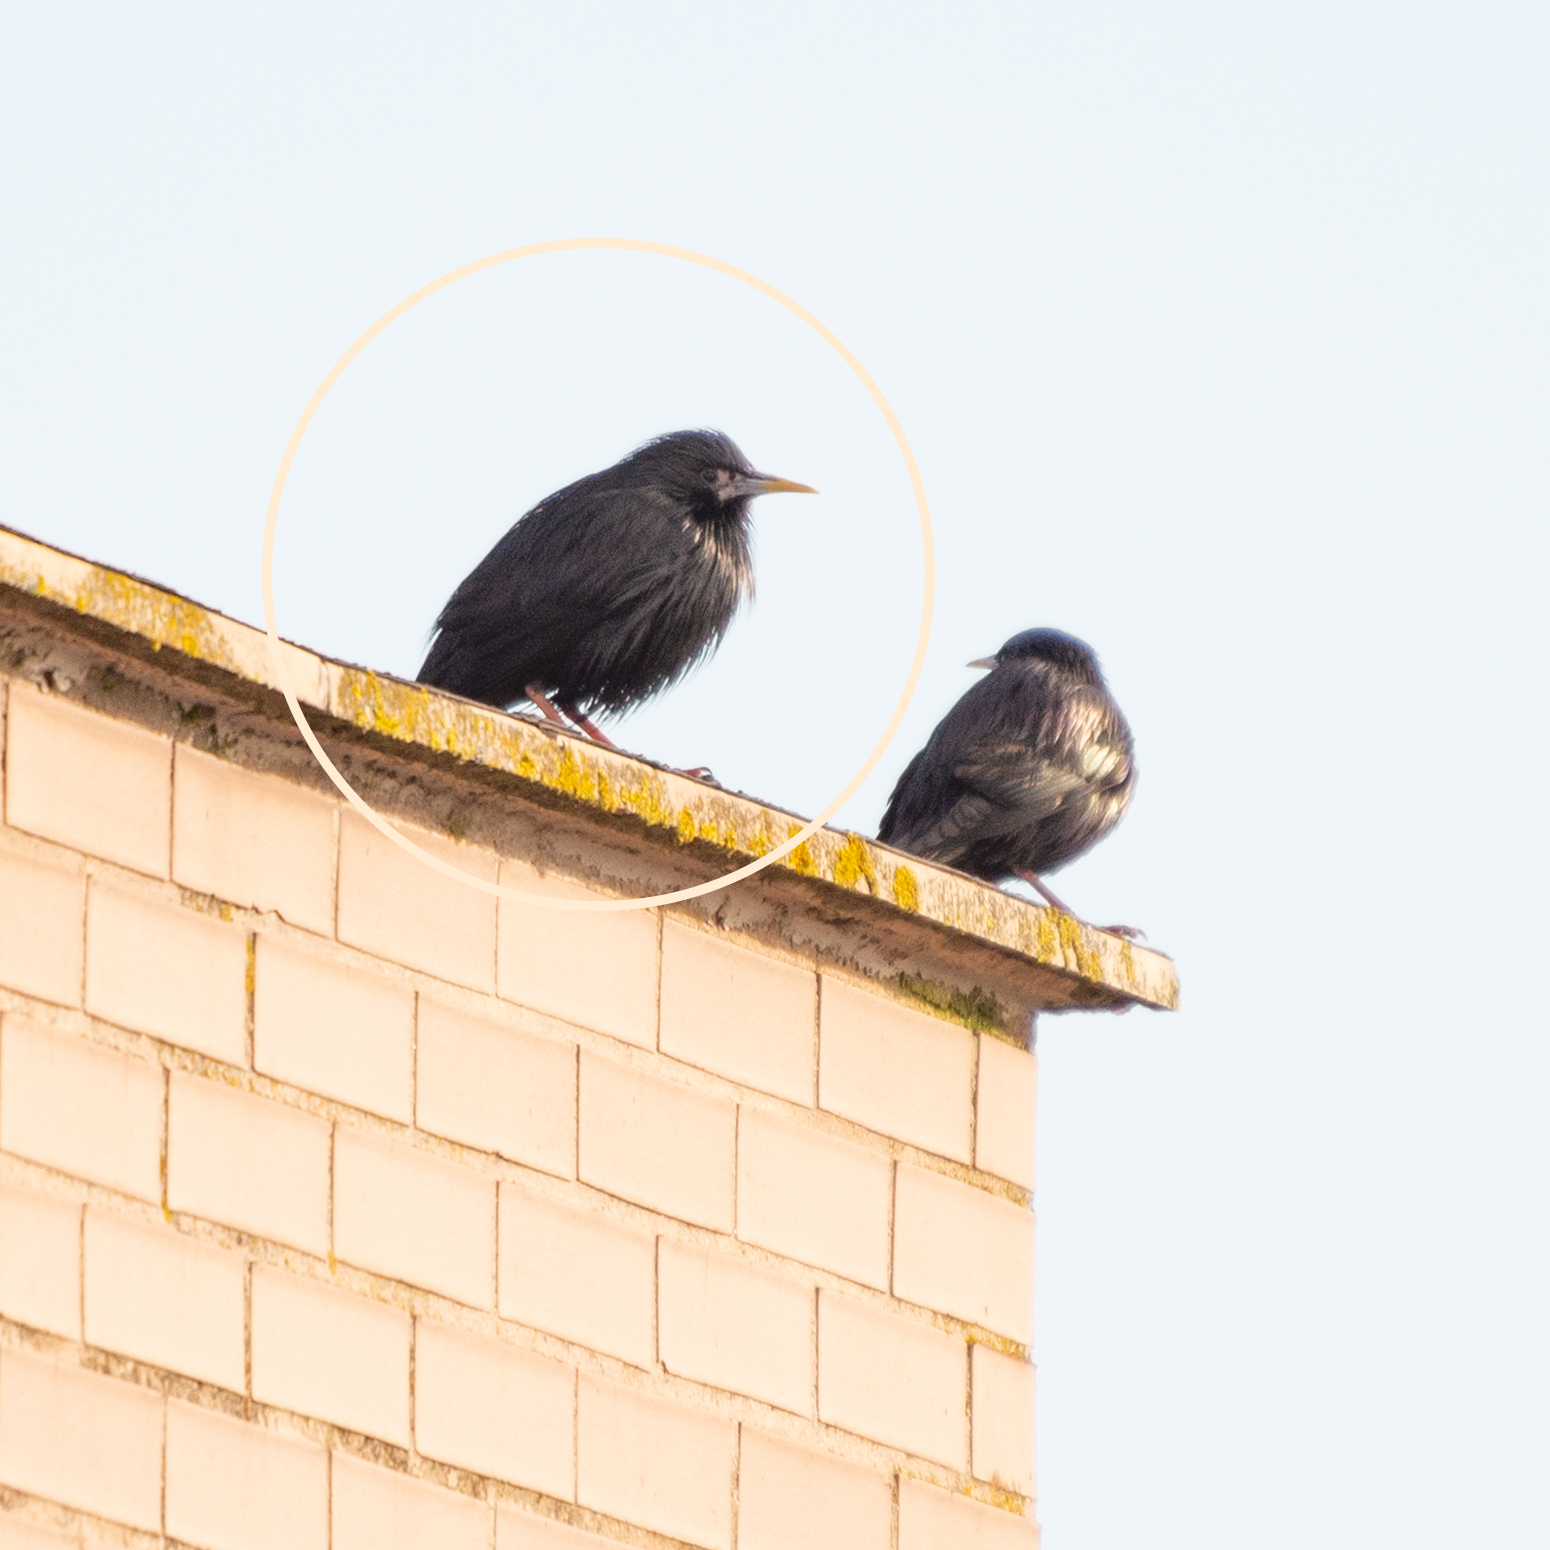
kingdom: Animalia
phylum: Chordata
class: Aves
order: Passeriformes
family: Sturnidae
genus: Sturnus
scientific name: Sturnus unicolor
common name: Spotless starling
